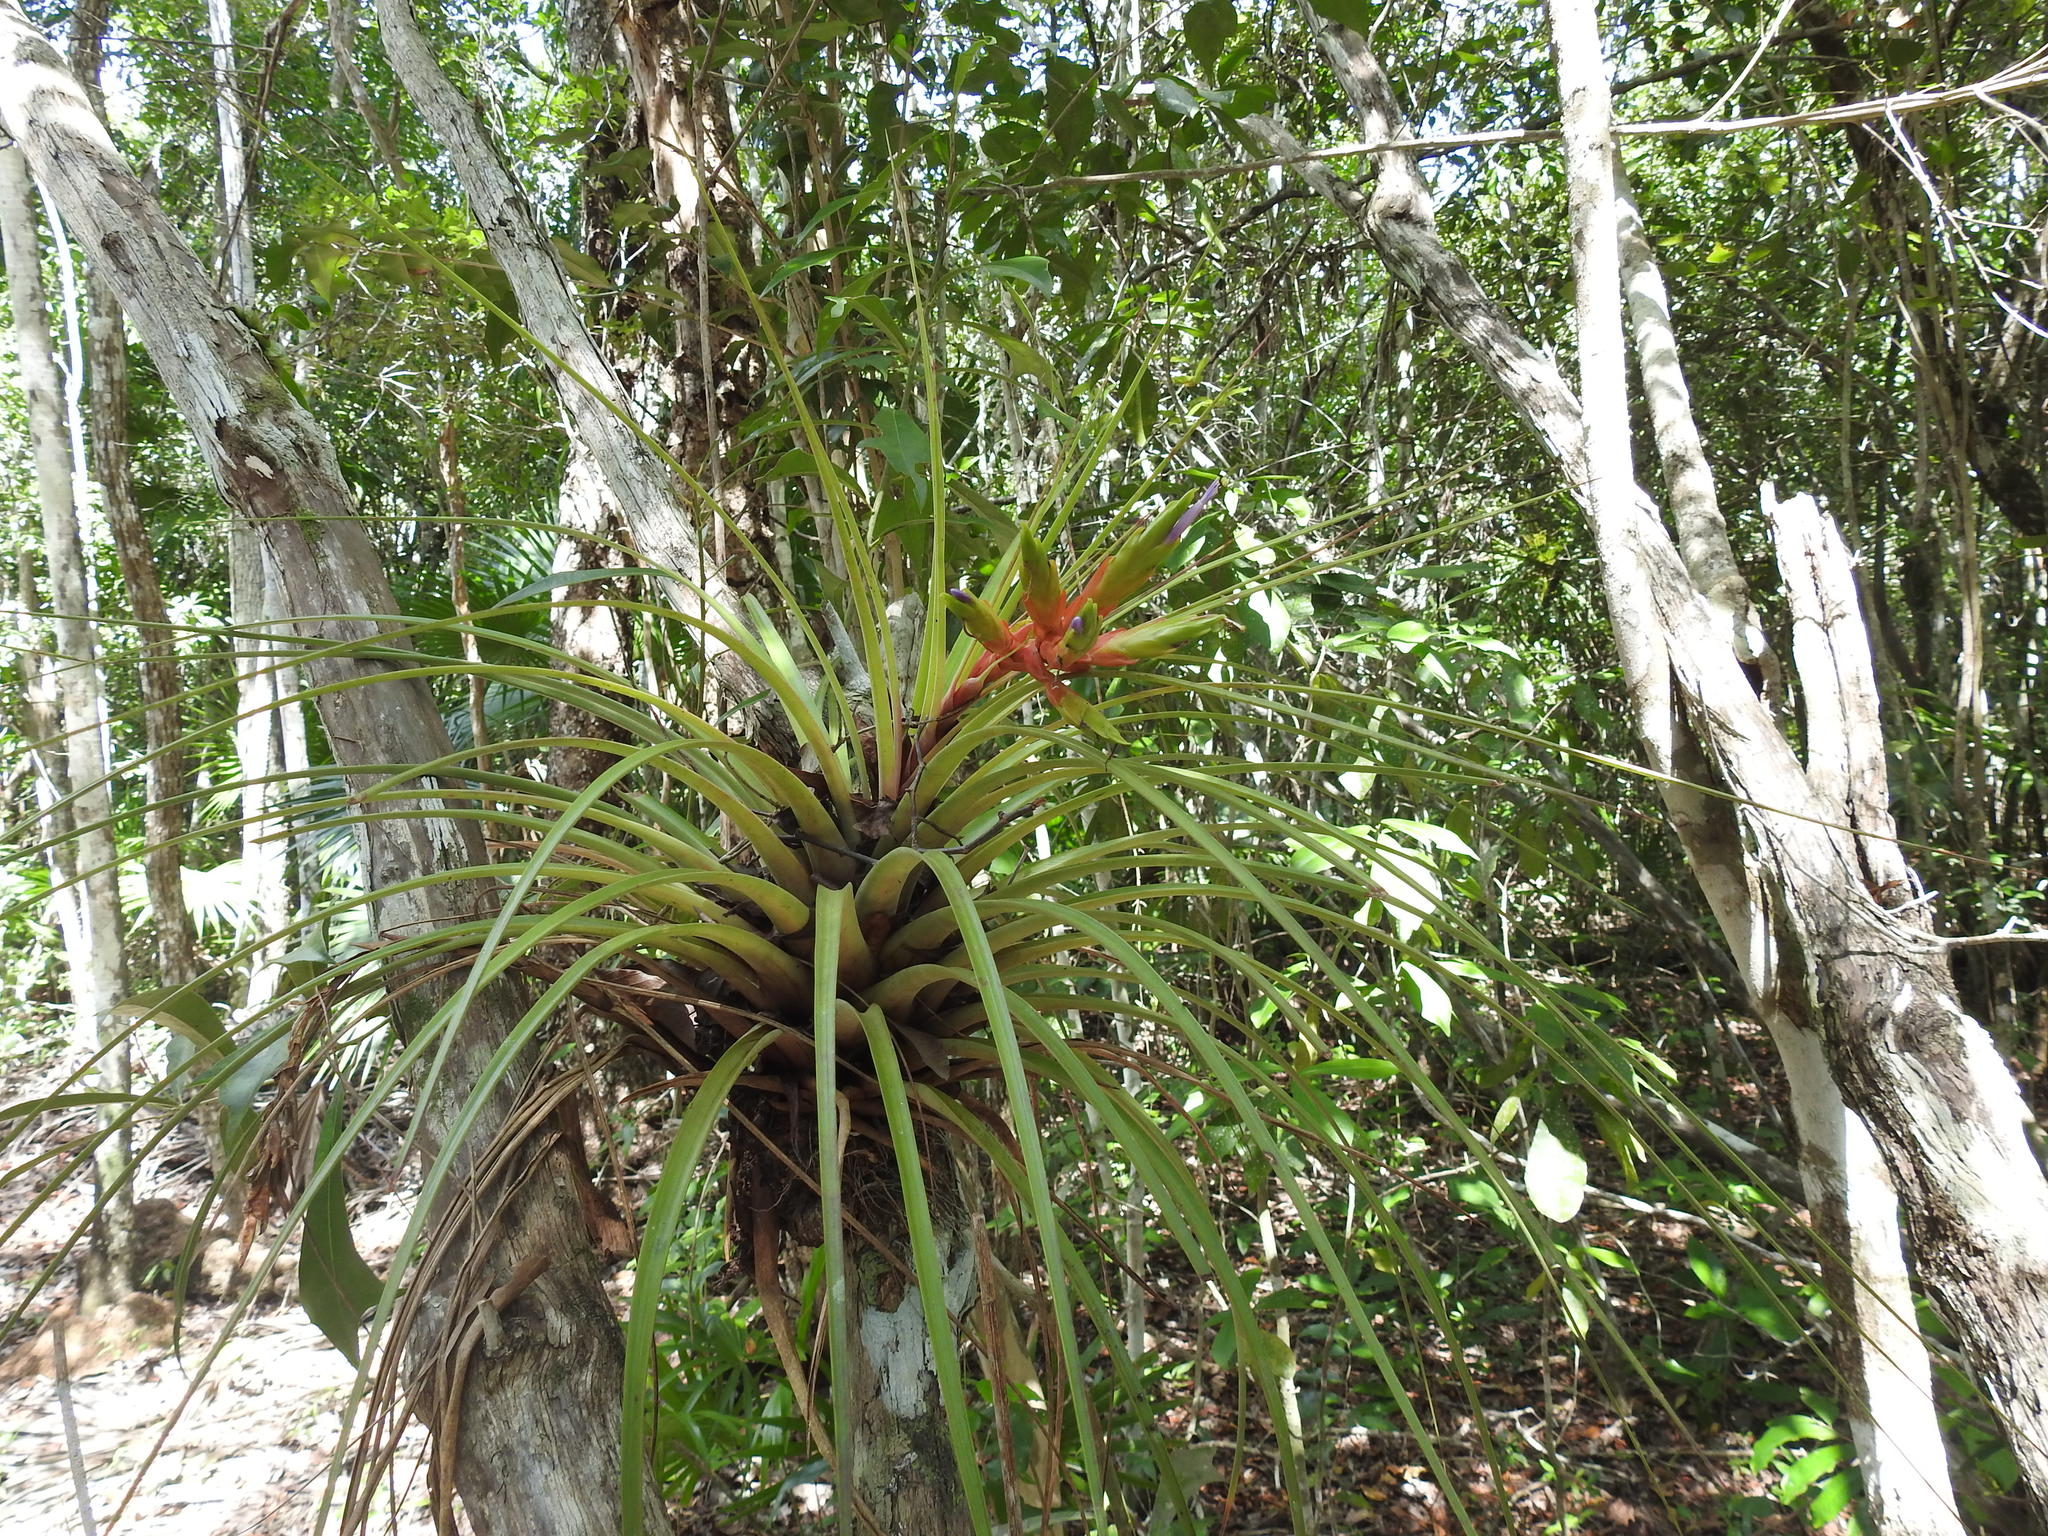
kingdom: Plantae
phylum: Tracheophyta
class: Liliopsida
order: Poales
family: Bromeliaceae
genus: Tillandsia
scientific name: Tillandsia fasciculata
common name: Giant airplant
